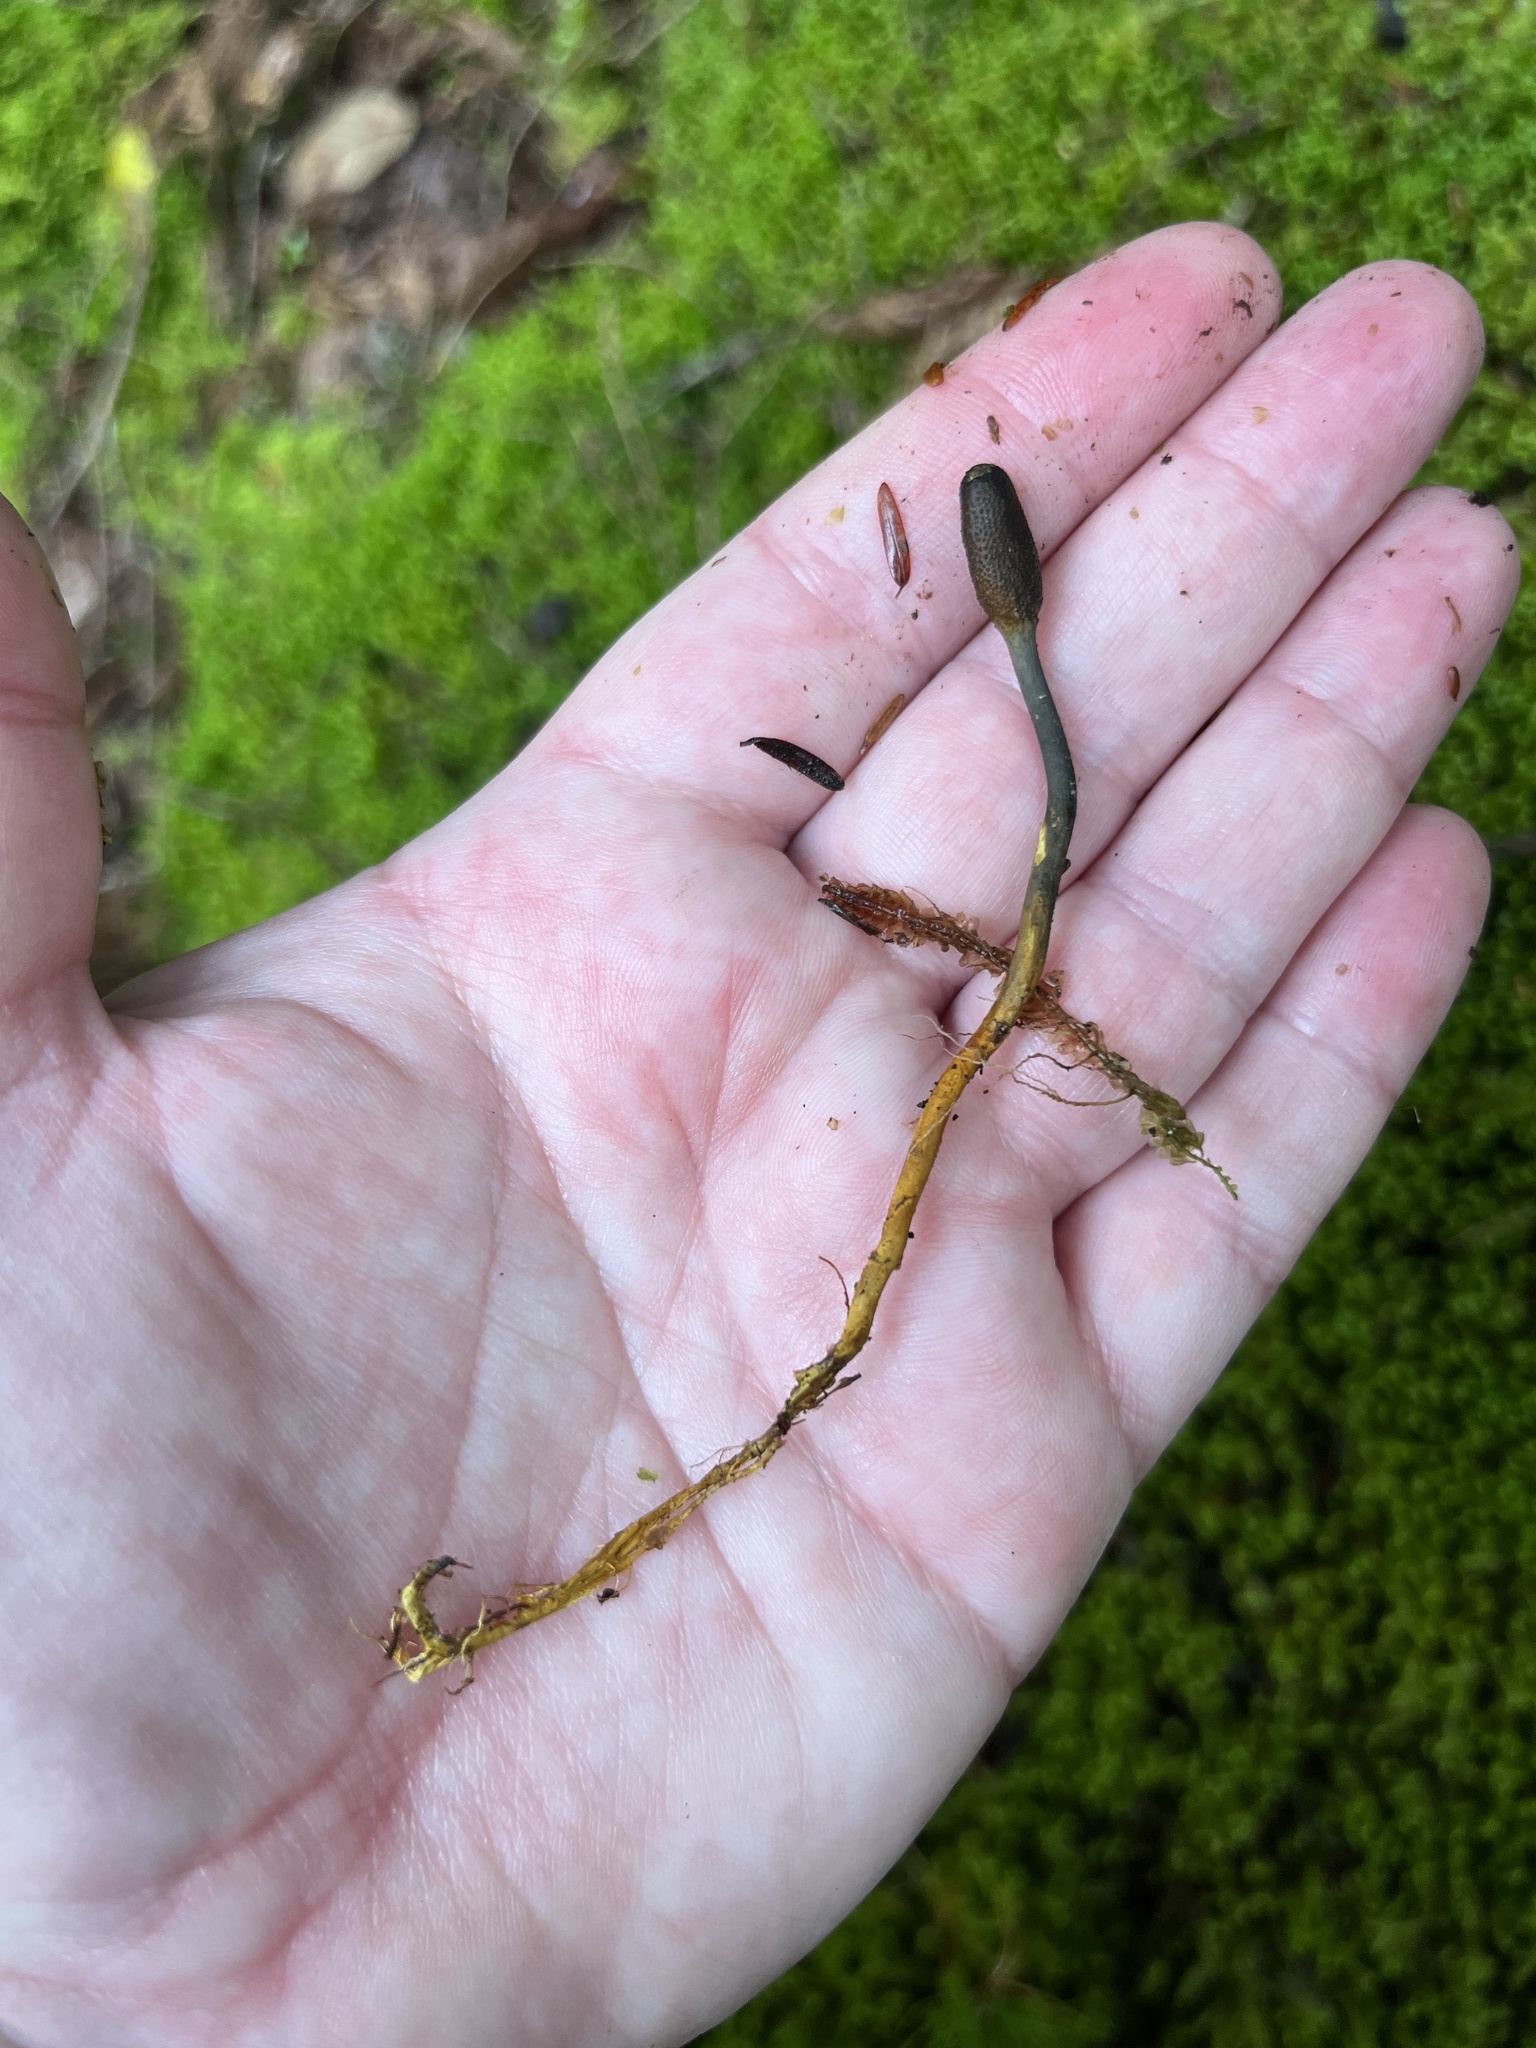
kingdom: Fungi
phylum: Ascomycota
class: Sordariomycetes
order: Hypocreales
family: Ophiocordycipitaceae
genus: Tolypocladium
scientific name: Tolypocladium ophioglossoides
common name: Snaketongue truffleclub
